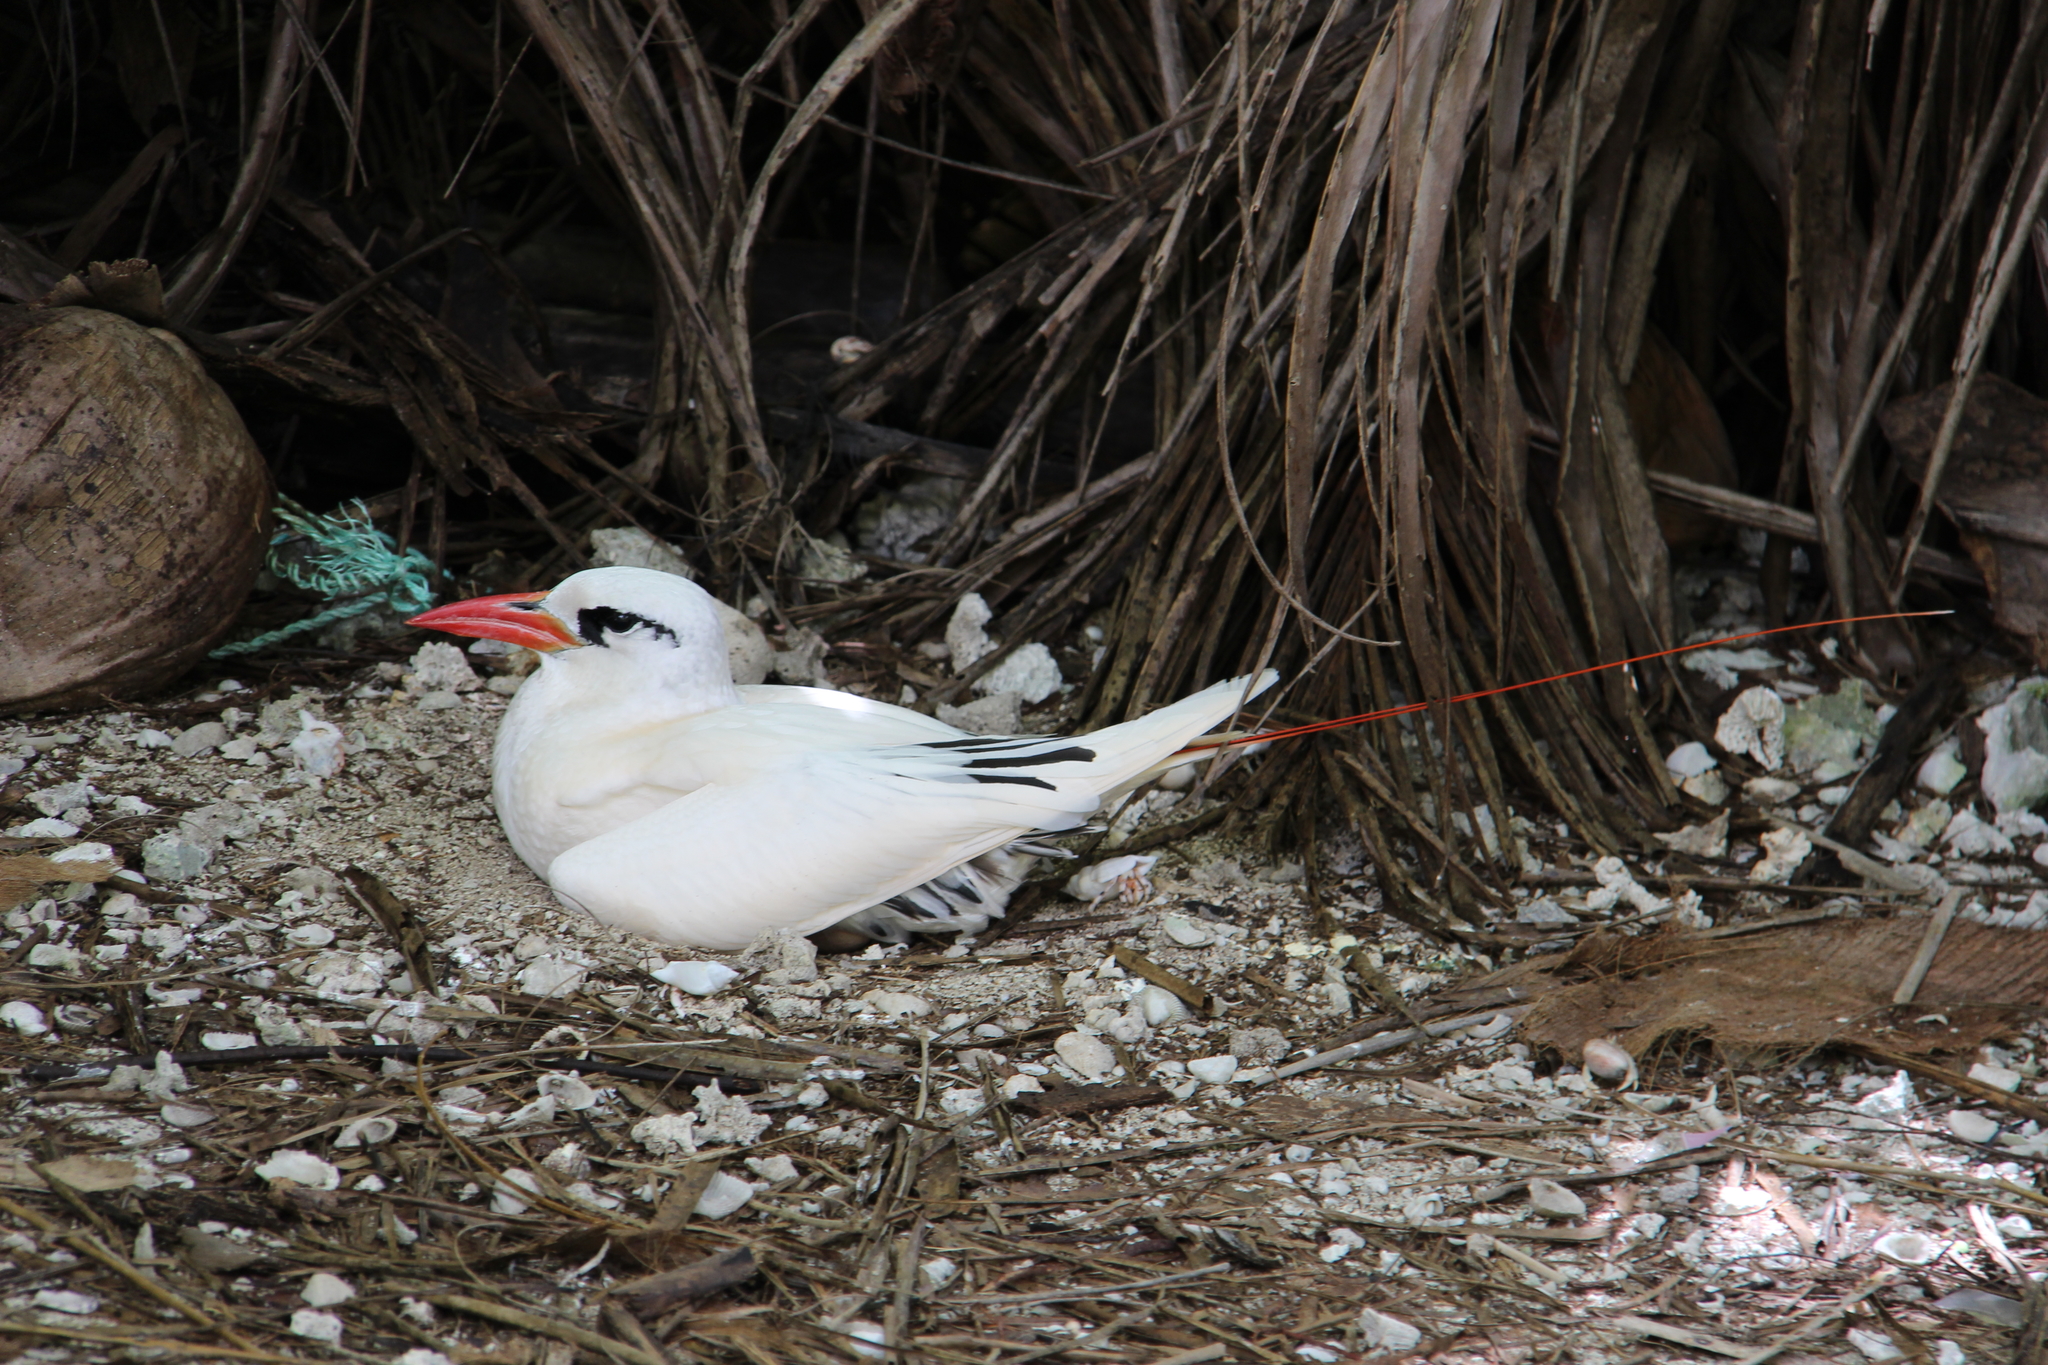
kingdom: Animalia
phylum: Chordata
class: Aves
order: Phaethontiformes
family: Phaethontidae
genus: Phaethon
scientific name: Phaethon rubricauda
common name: Red-tailed tropicbird
